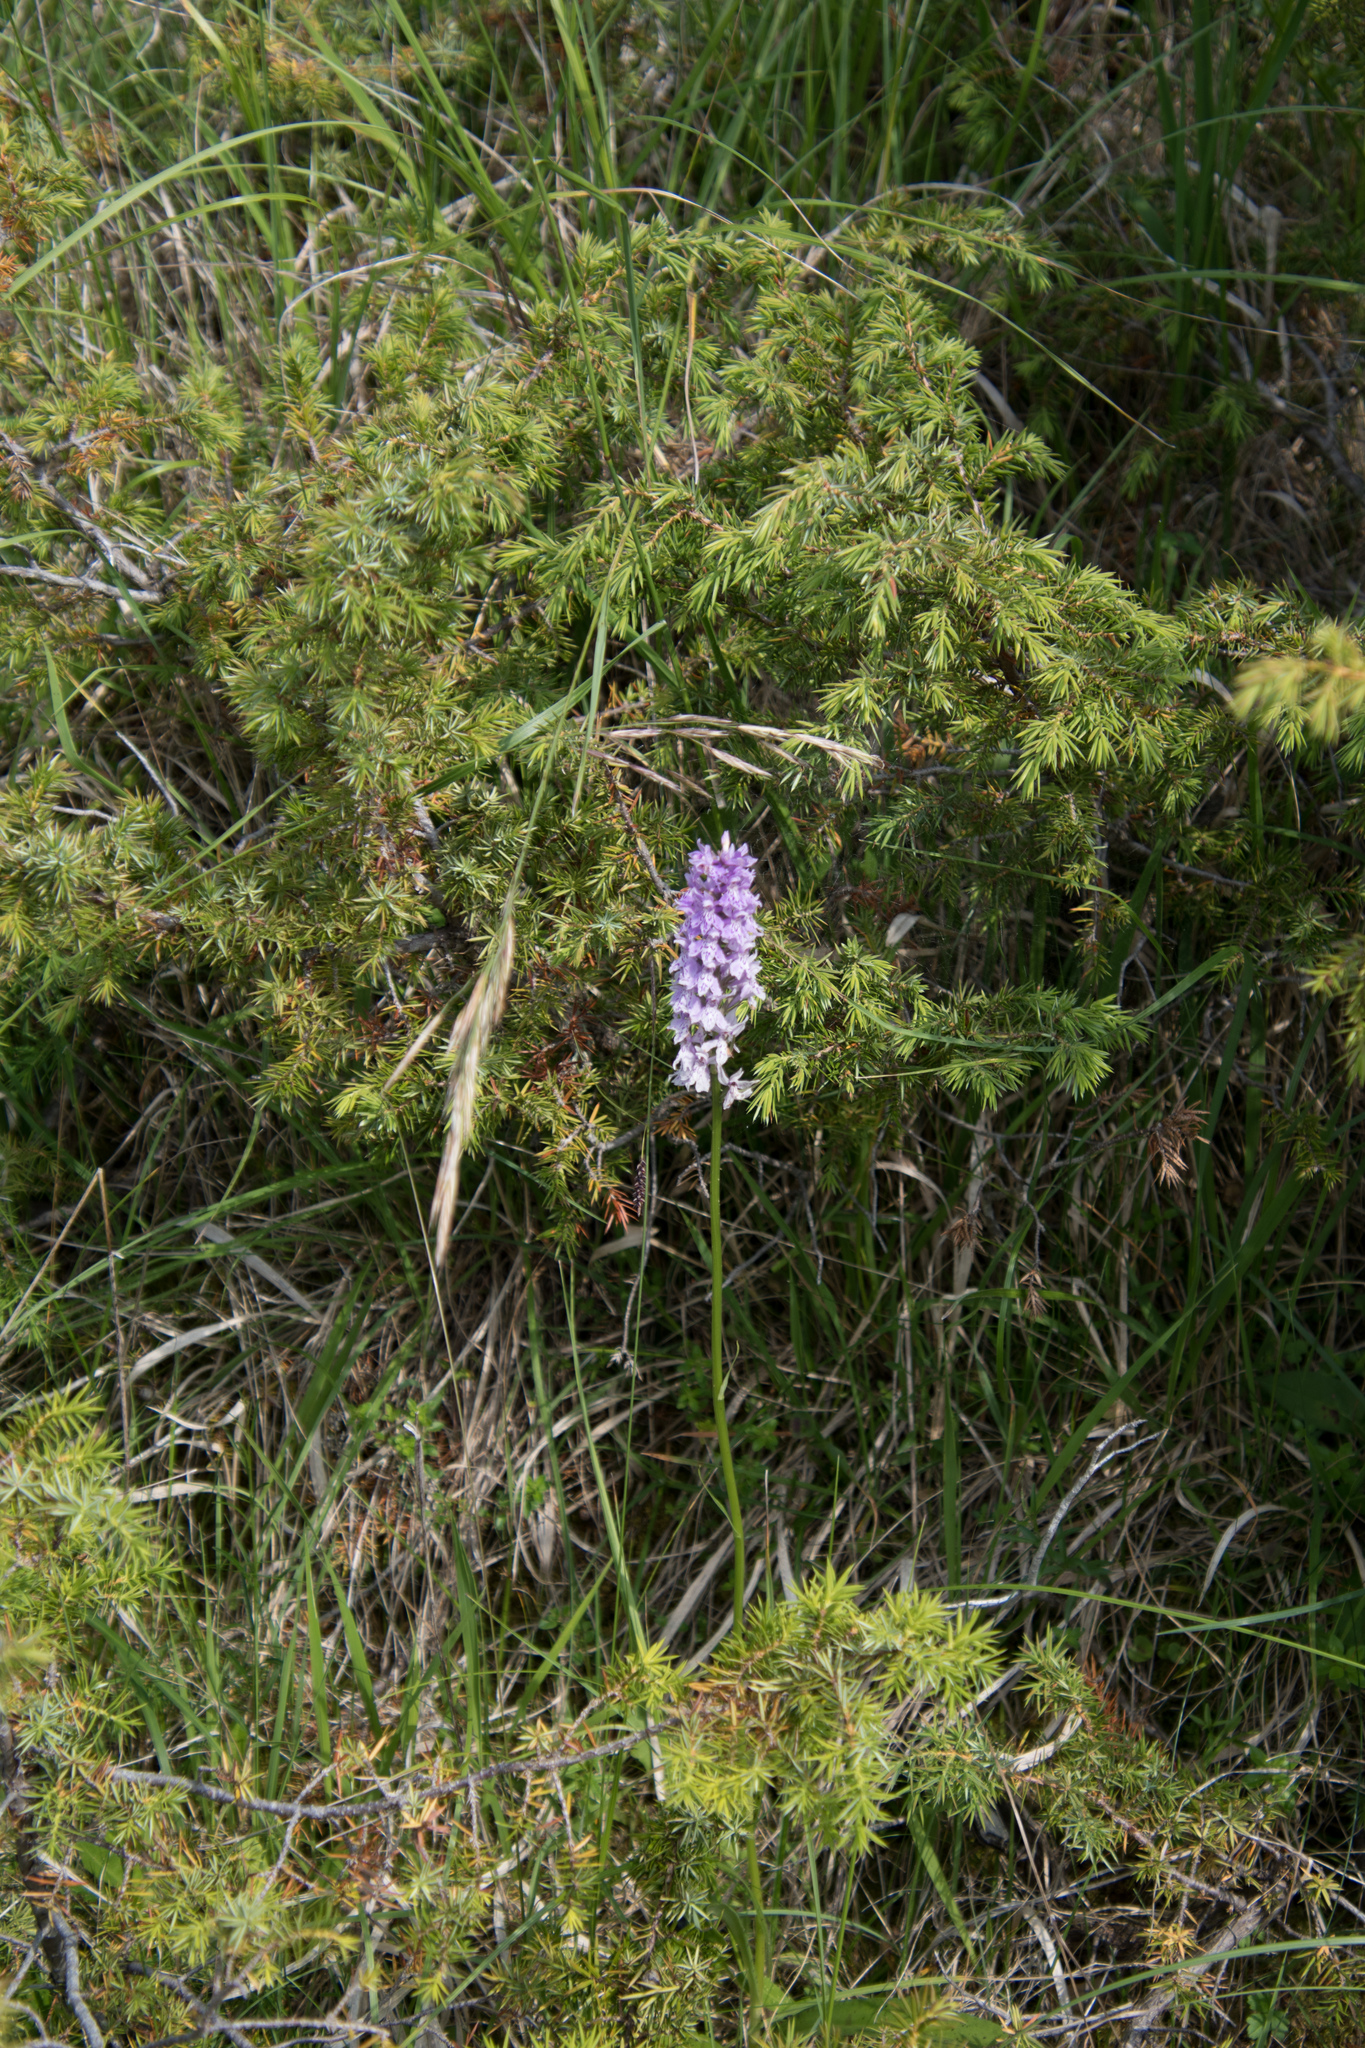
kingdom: Plantae
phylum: Tracheophyta
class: Liliopsida
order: Asparagales
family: Orchidaceae
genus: Dactylorhiza
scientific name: Dactylorhiza maculata
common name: Heath spotted-orchid
